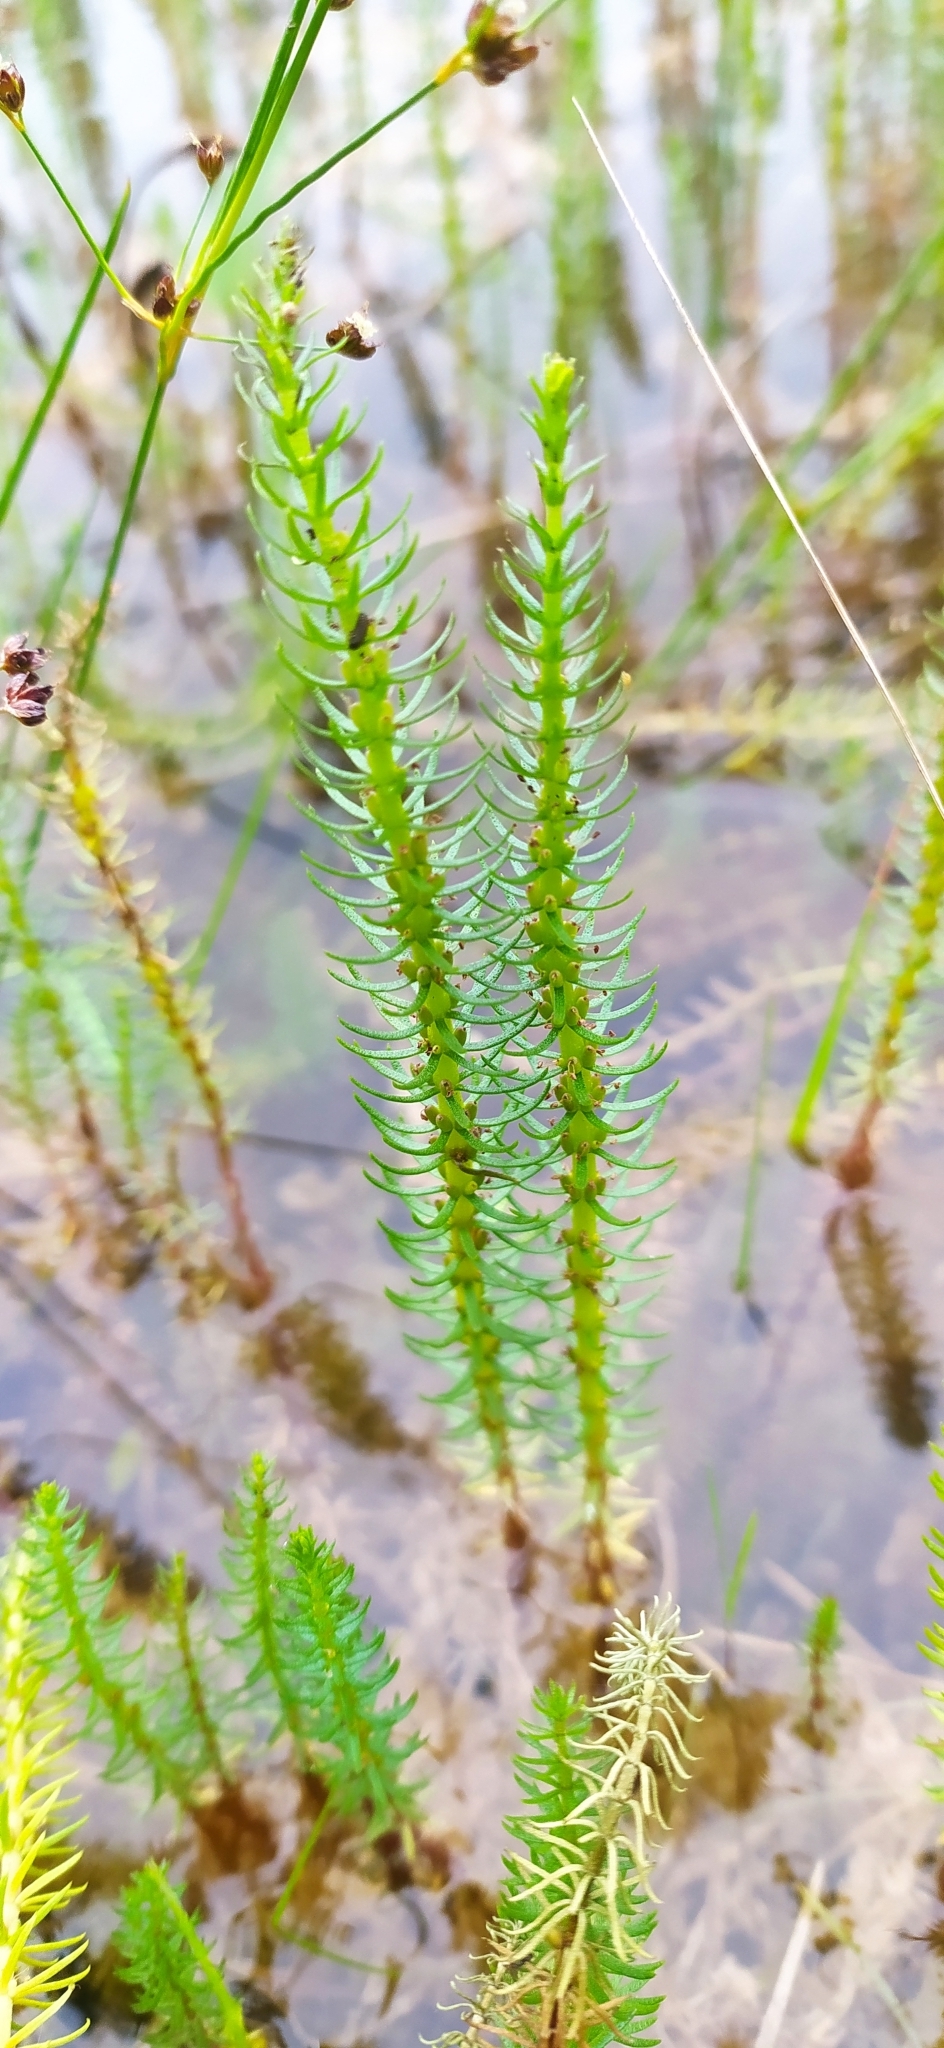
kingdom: Plantae
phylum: Tracheophyta
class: Magnoliopsida
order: Lamiales
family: Plantaginaceae
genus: Hippuris
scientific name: Hippuris vulgaris
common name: Mare's-tail
